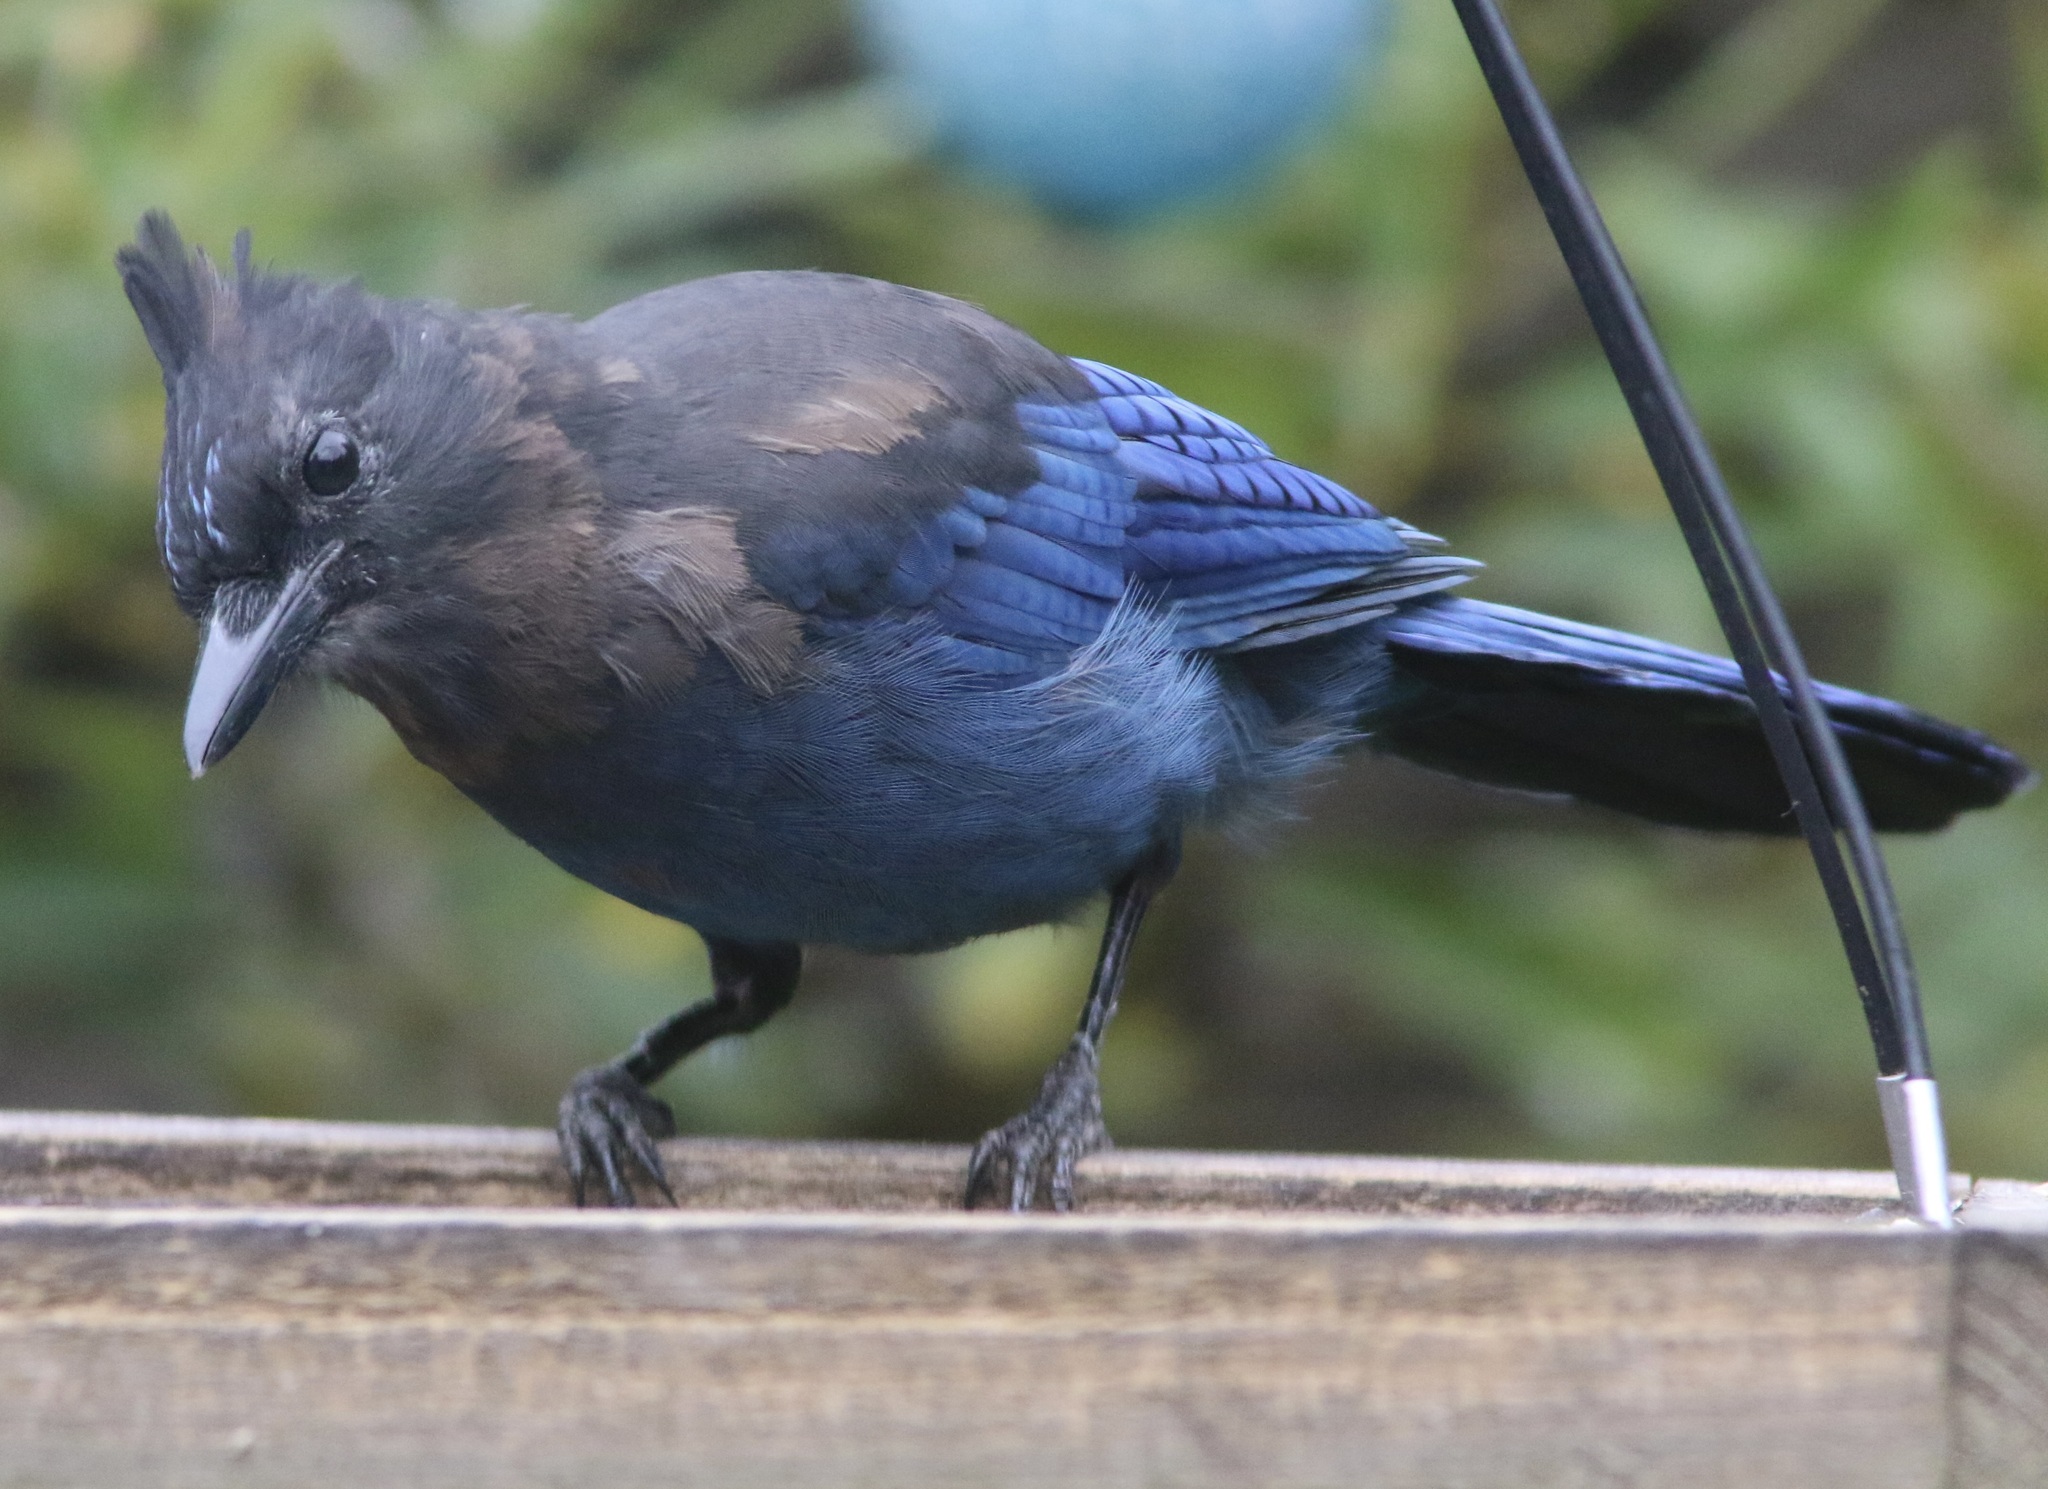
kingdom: Animalia
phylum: Chordata
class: Aves
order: Passeriformes
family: Corvidae
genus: Cyanocitta
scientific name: Cyanocitta stelleri
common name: Steller's jay
